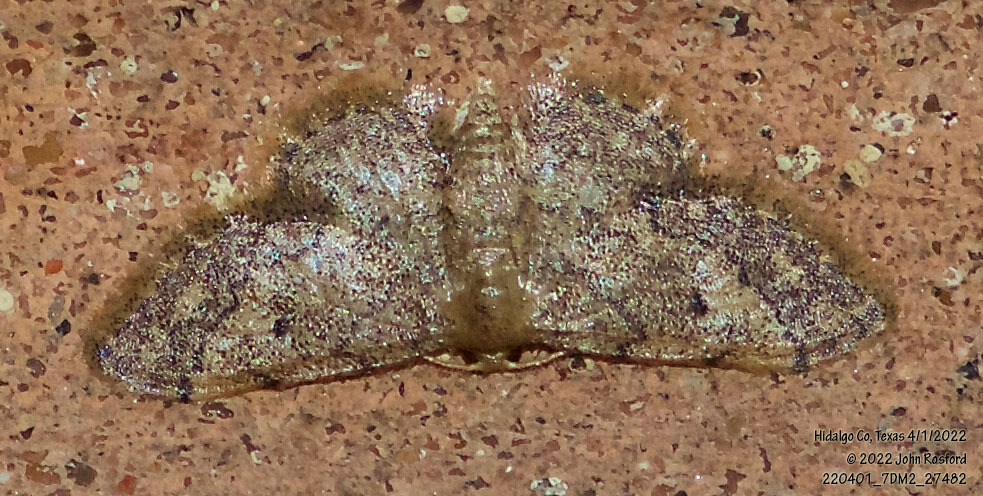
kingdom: Animalia
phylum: Arthropoda
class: Insecta
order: Lepidoptera
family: Geometridae
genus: Idaea
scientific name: Idaea celtima
